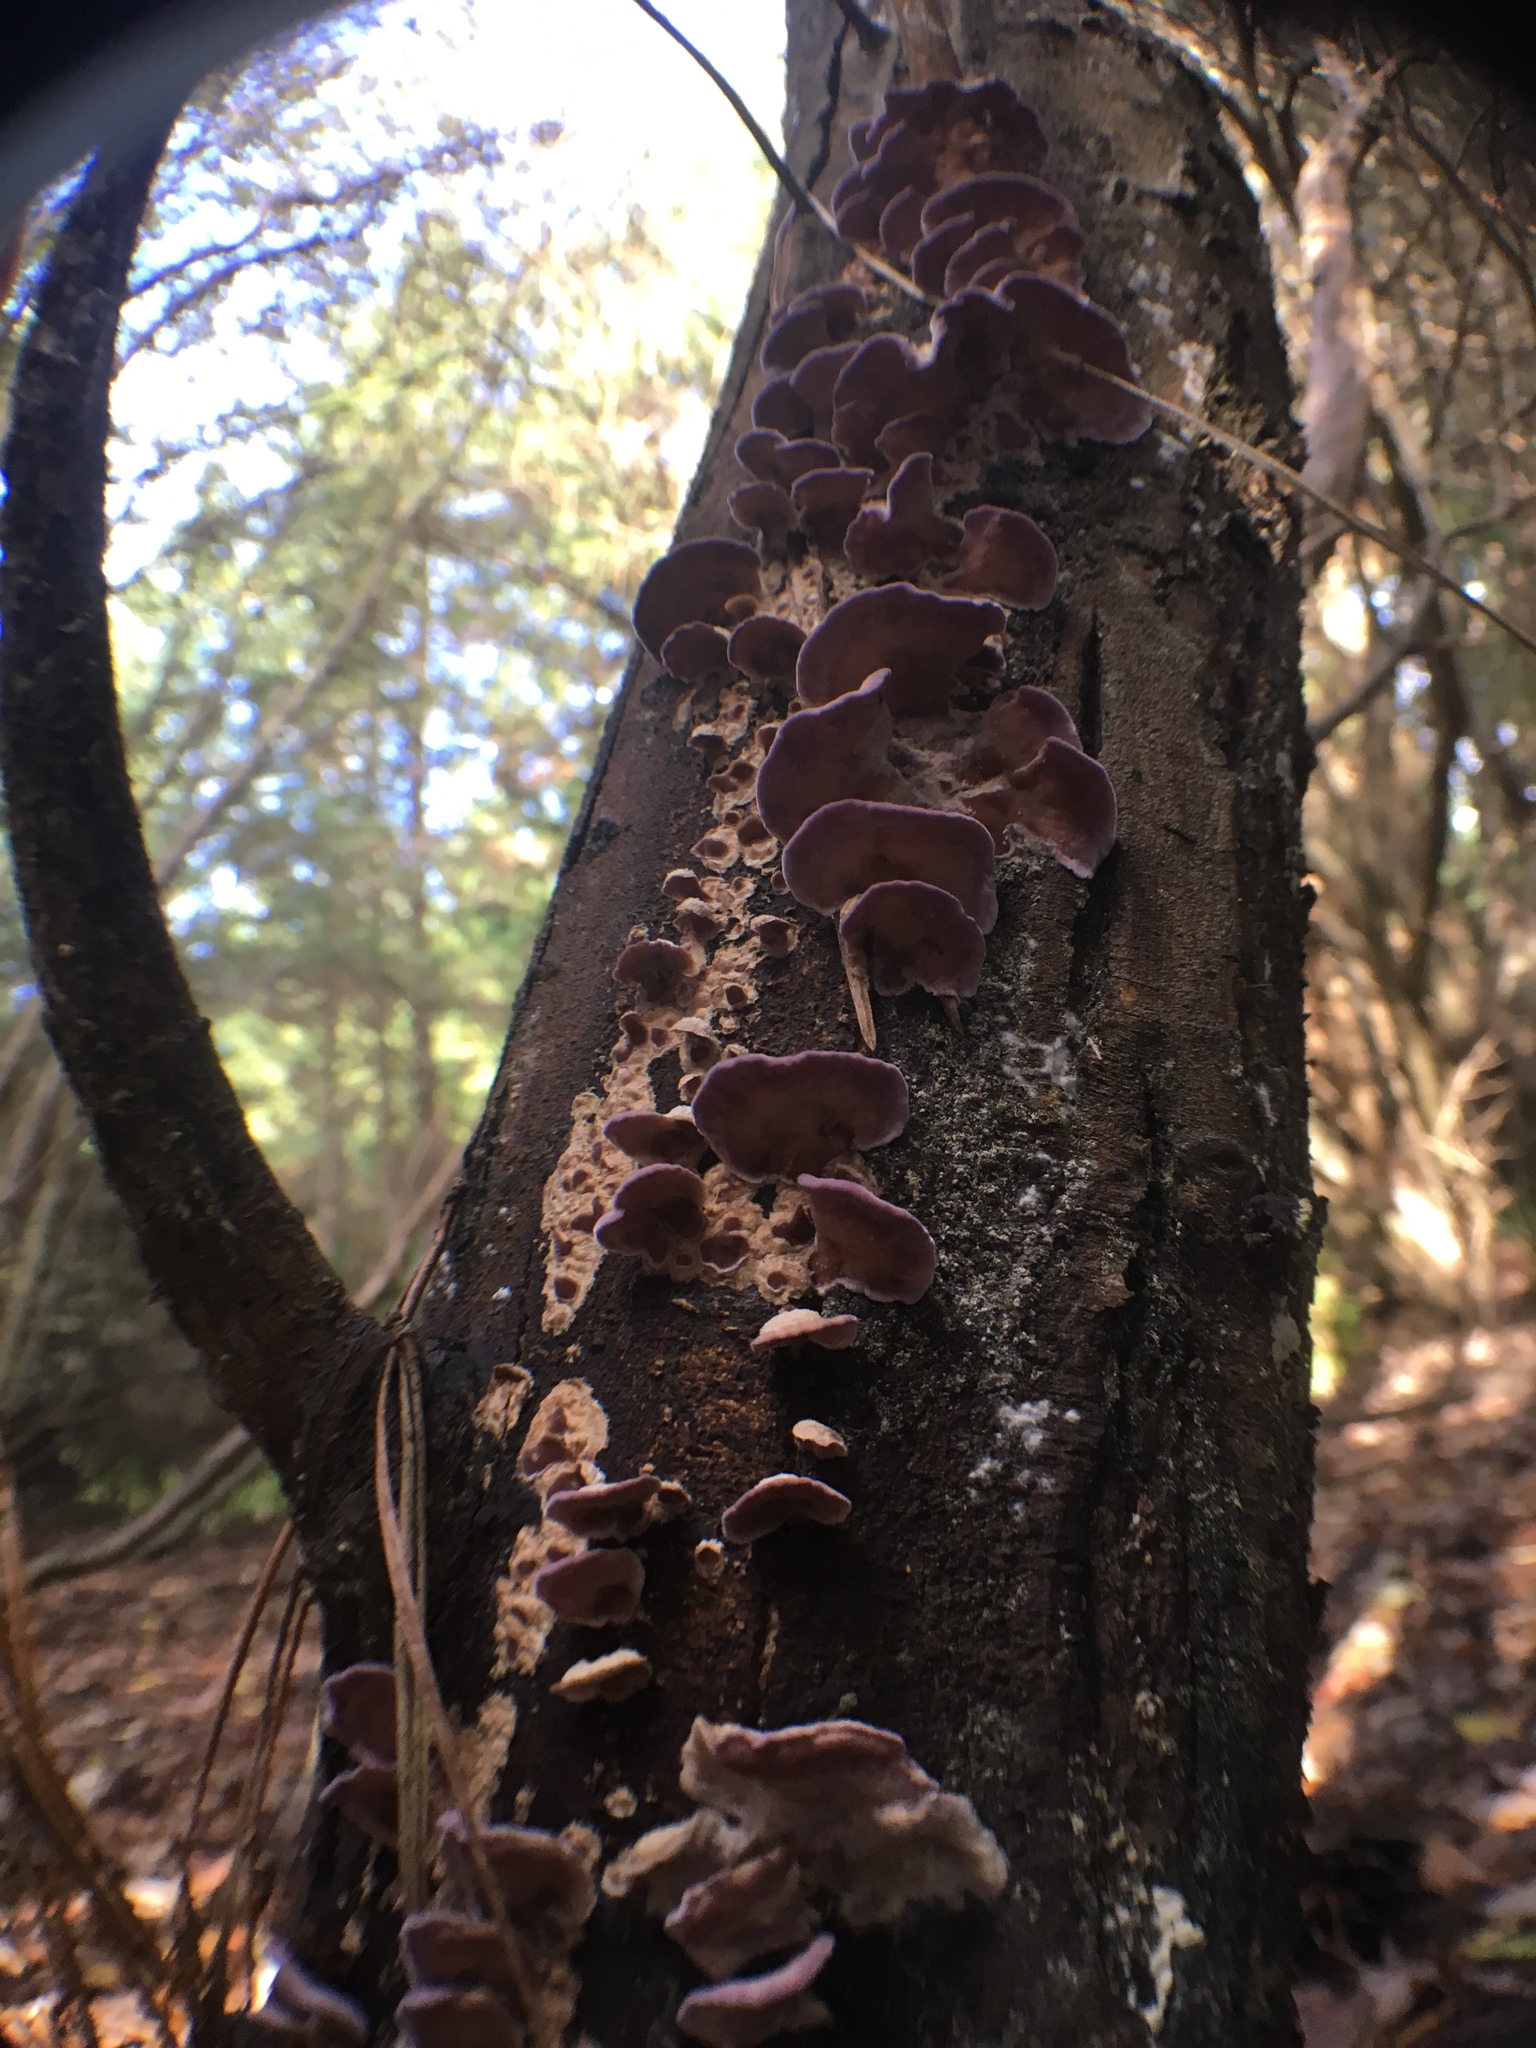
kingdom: Fungi
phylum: Basidiomycota
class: Agaricomycetes
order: Agaricales
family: Cyphellaceae
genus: Chondrostereum
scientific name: Chondrostereum purpureum
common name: Silver leaf disease
